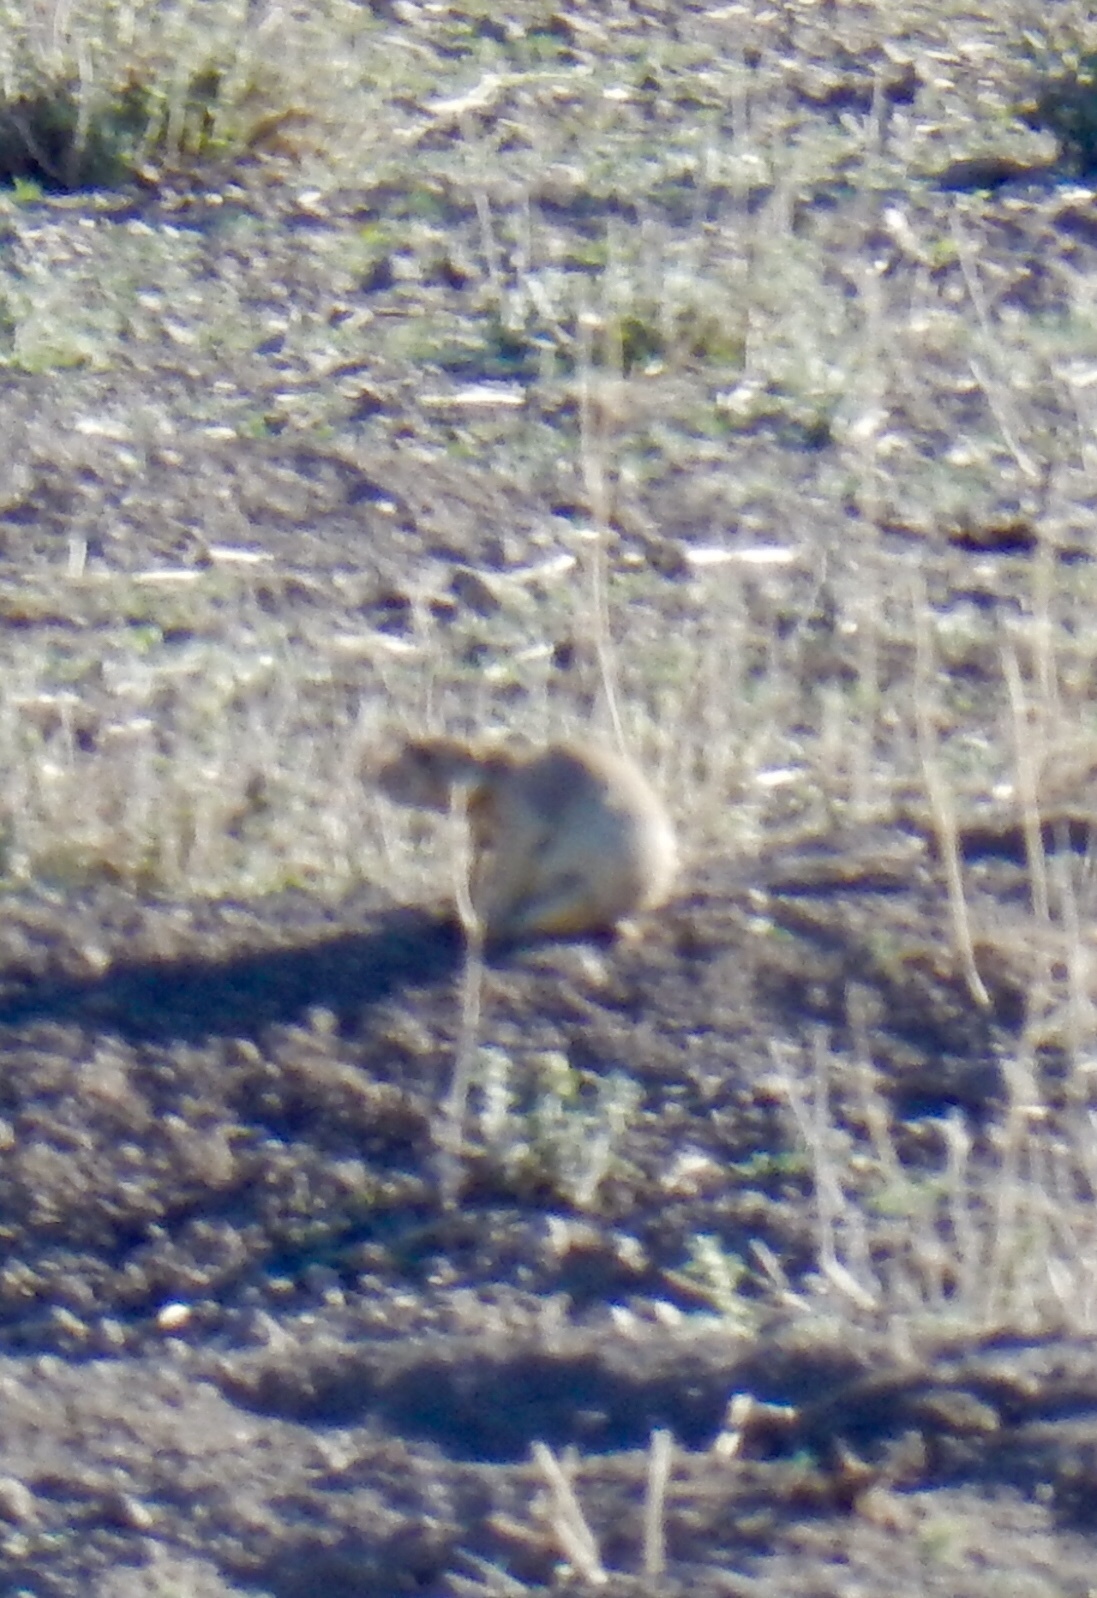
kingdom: Animalia
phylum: Chordata
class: Mammalia
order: Rodentia
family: Sciuridae
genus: Cynomys
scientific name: Cynomys gunnisoni
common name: Gunnison's prairie dog
